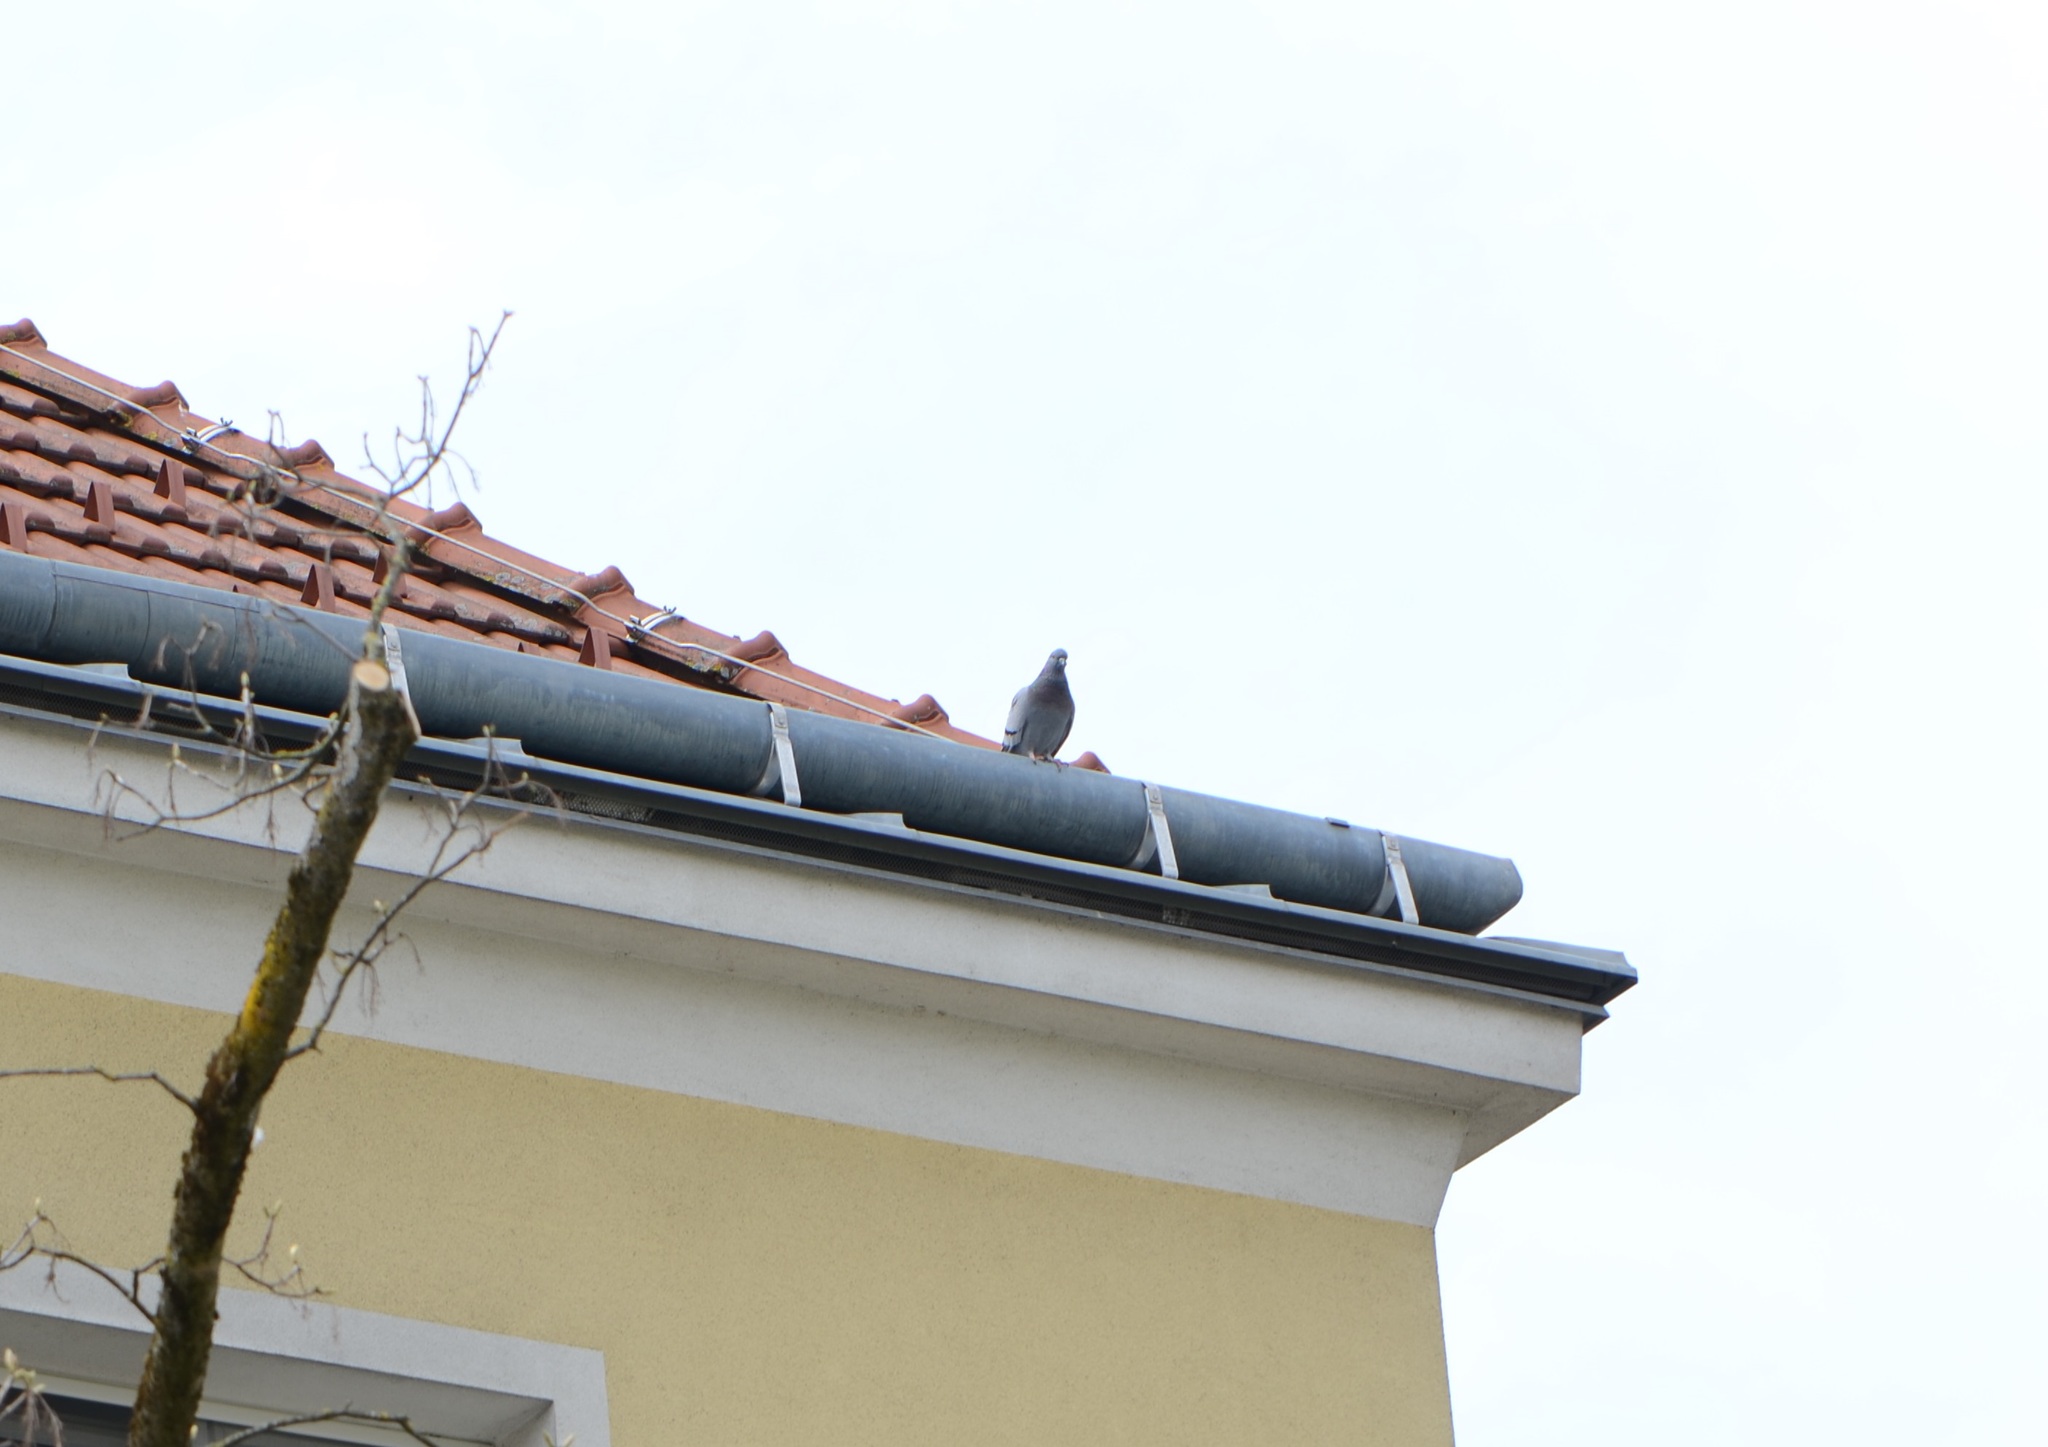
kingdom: Animalia
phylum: Chordata
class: Aves
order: Columbiformes
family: Columbidae
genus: Columba
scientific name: Columba livia
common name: Rock pigeon
